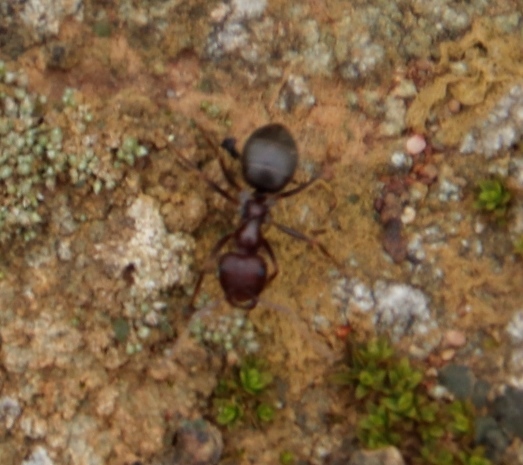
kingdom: Animalia
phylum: Arthropoda
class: Insecta
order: Hymenoptera
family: Formicidae
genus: Anoplolepis
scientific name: Anoplolepis steingroeveri
